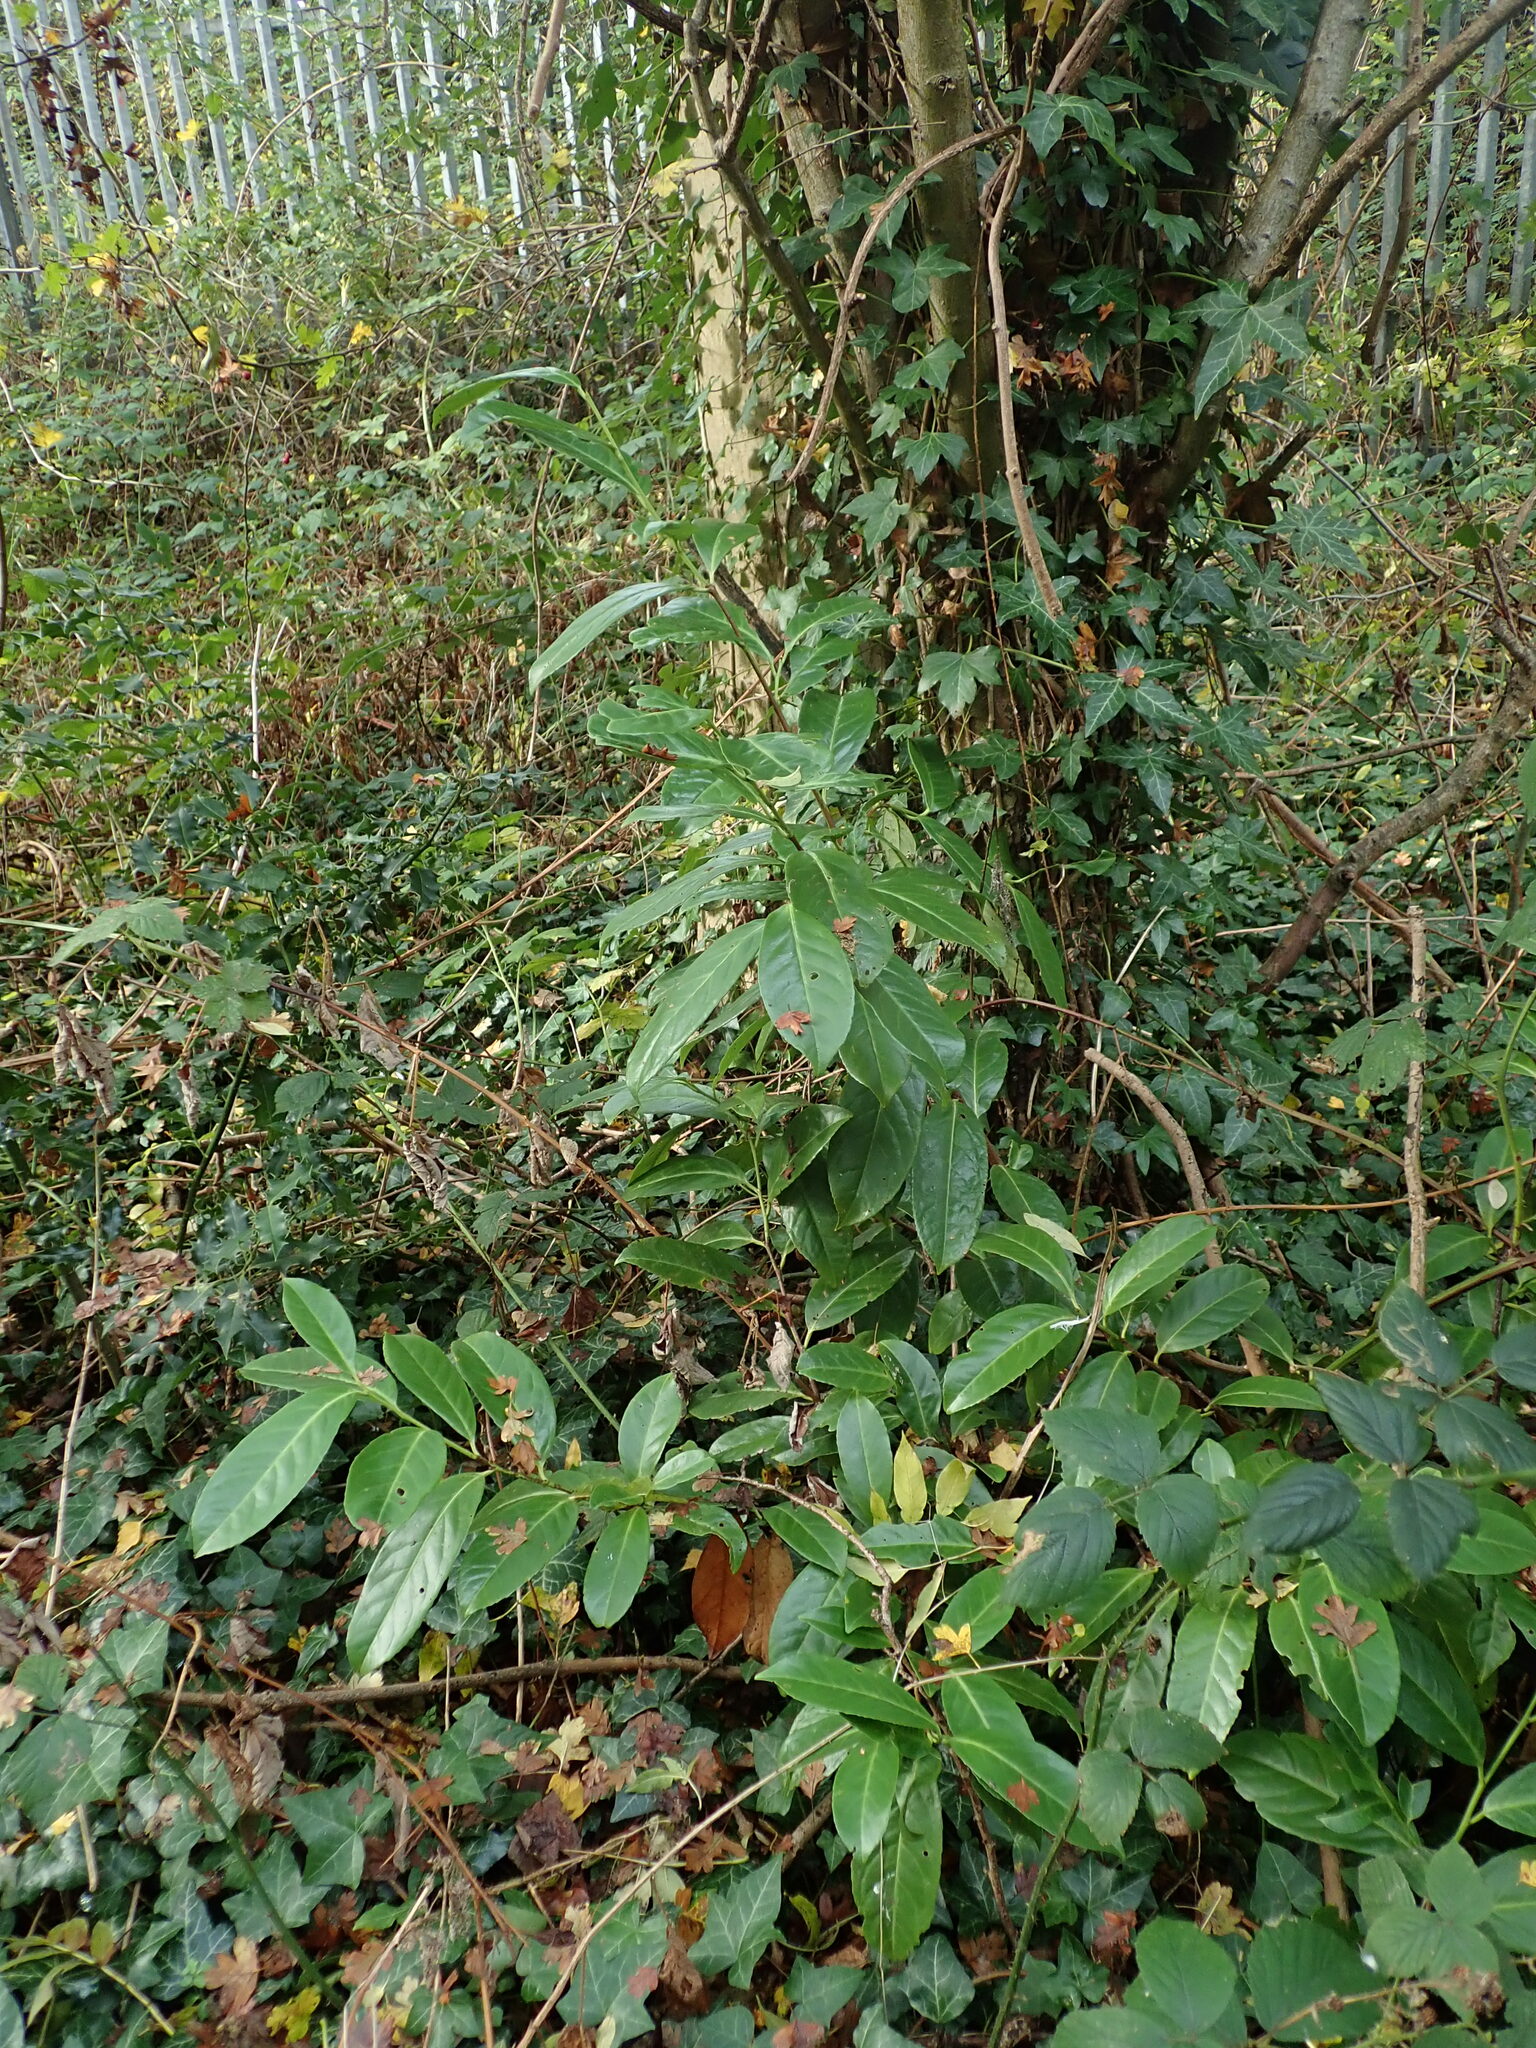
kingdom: Plantae
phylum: Tracheophyta
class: Magnoliopsida
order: Rosales
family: Rosaceae
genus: Prunus
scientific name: Prunus laurocerasus
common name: Cherry laurel
